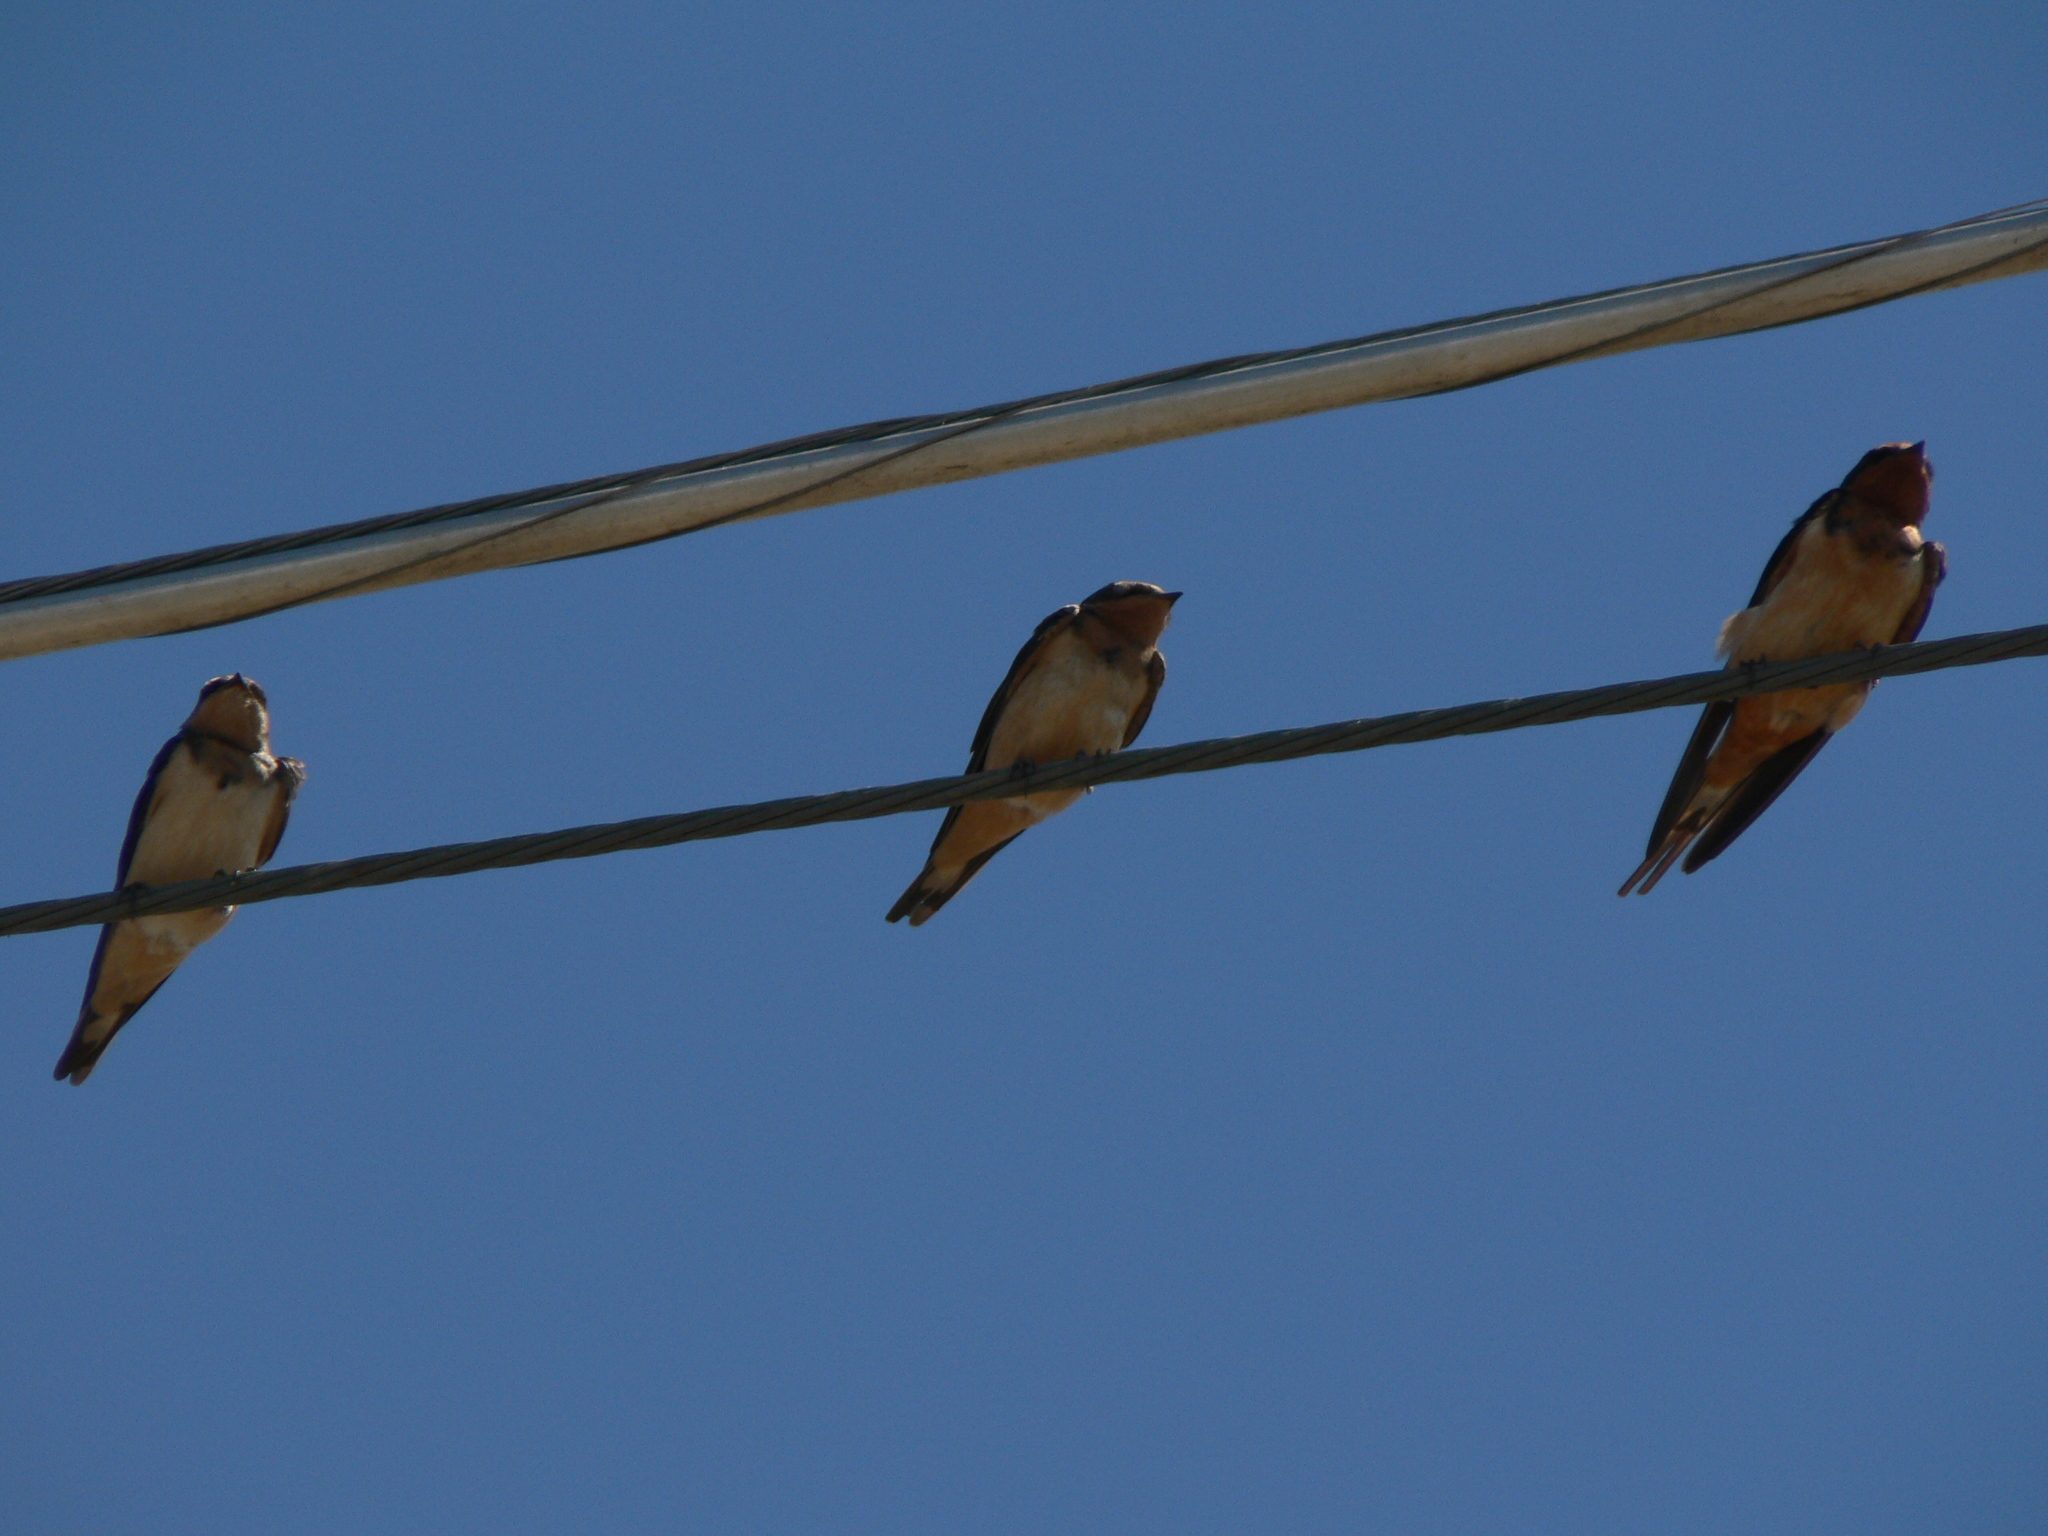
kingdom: Animalia
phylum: Chordata
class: Aves
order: Passeriformes
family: Hirundinidae
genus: Hirundo
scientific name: Hirundo rustica
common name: Barn swallow
